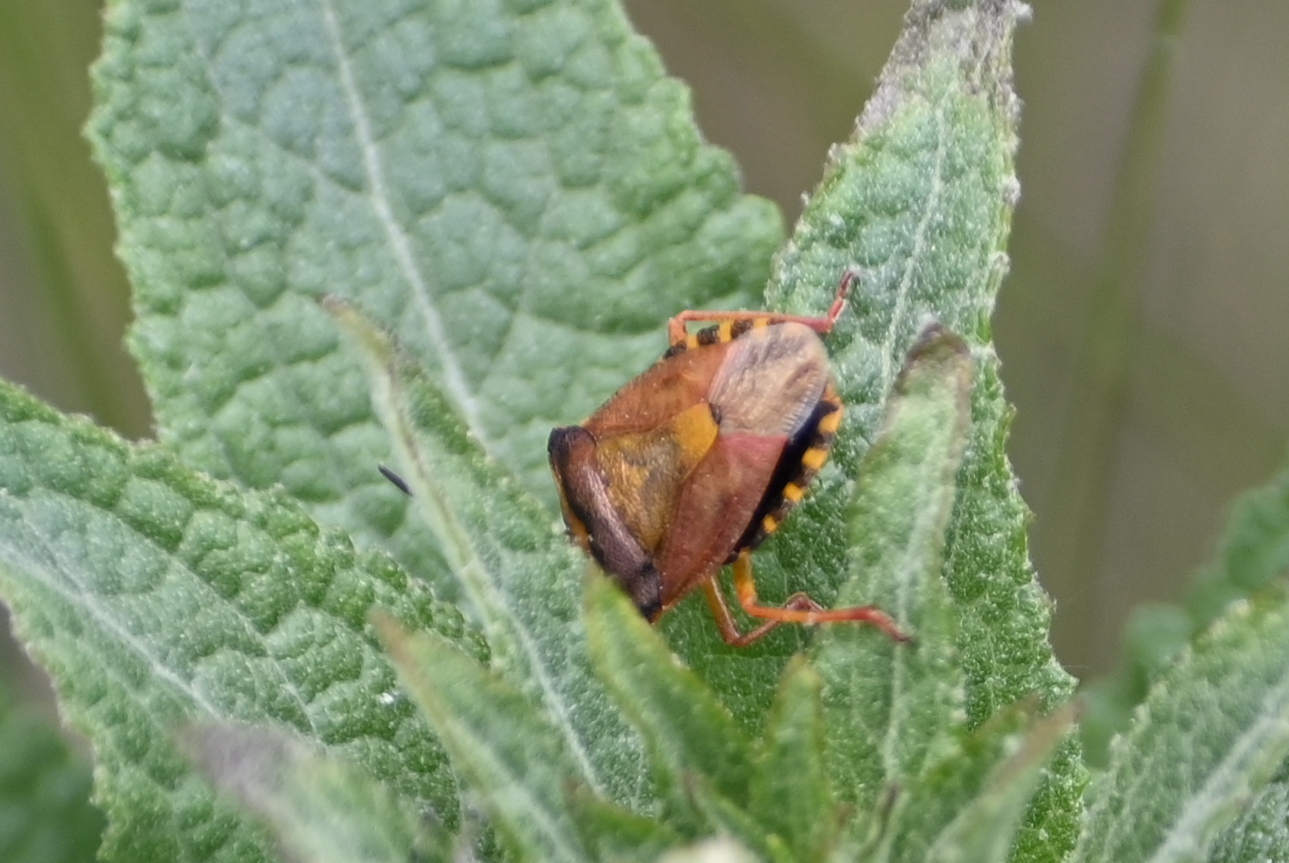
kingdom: Animalia
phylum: Arthropoda
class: Insecta
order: Hemiptera
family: Pentatomidae
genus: Carpocoris
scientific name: Carpocoris purpureipennis
